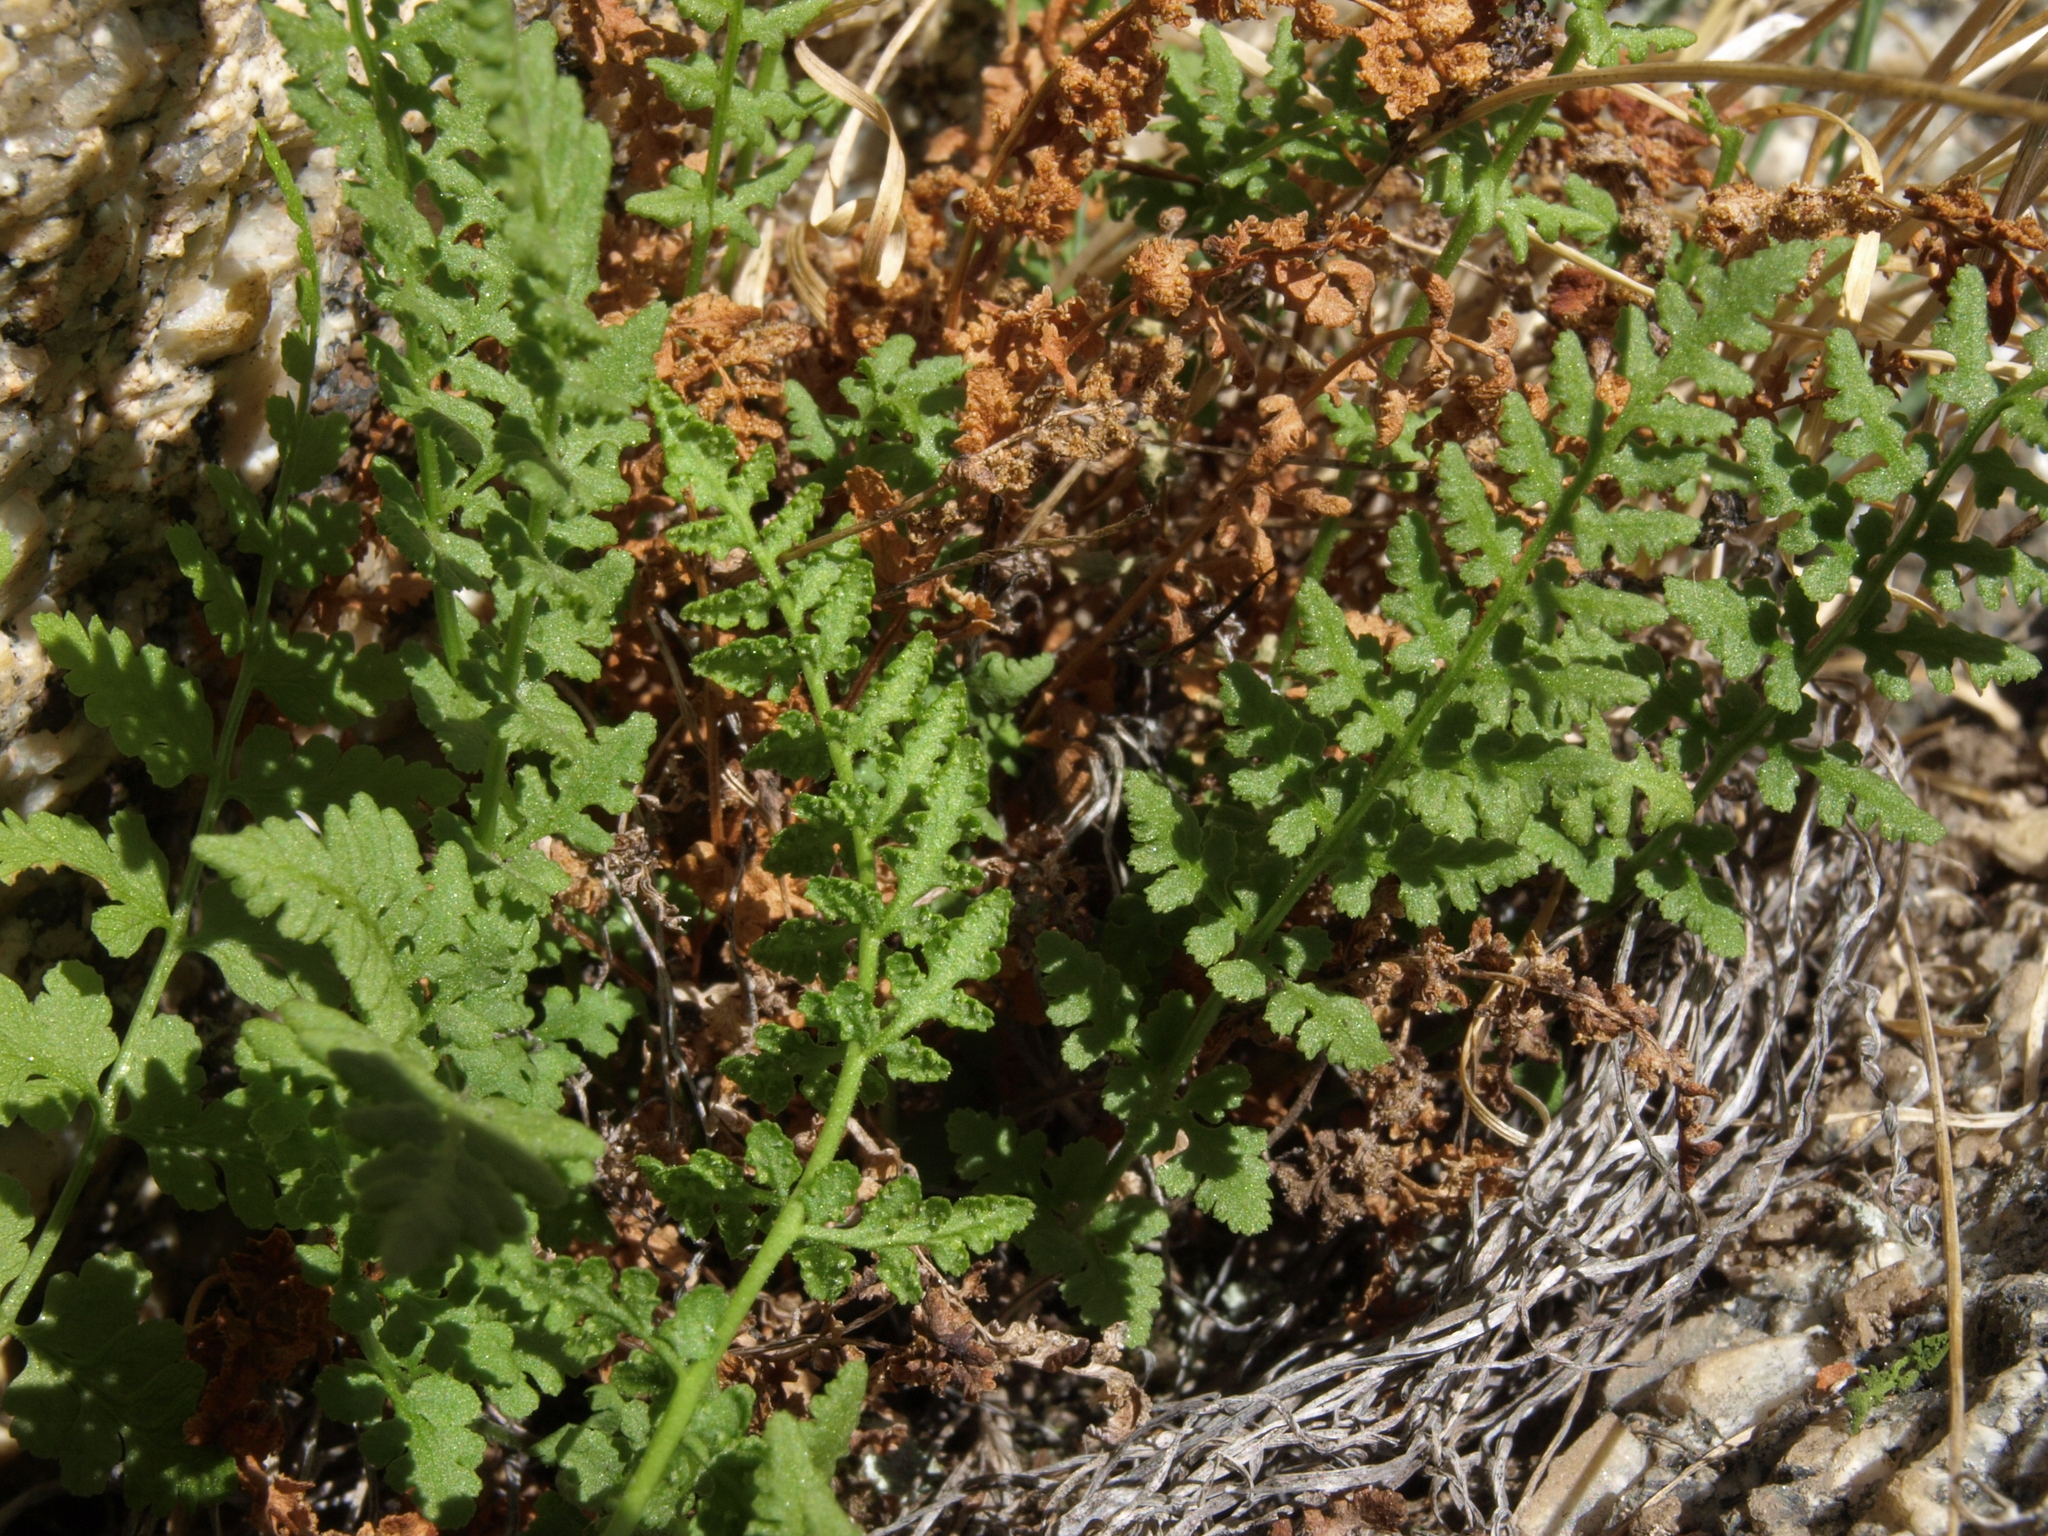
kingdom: Plantae
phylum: Tracheophyta
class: Polypodiopsida
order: Polypodiales
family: Woodsiaceae
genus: Physematium
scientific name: Physematium oreganum
